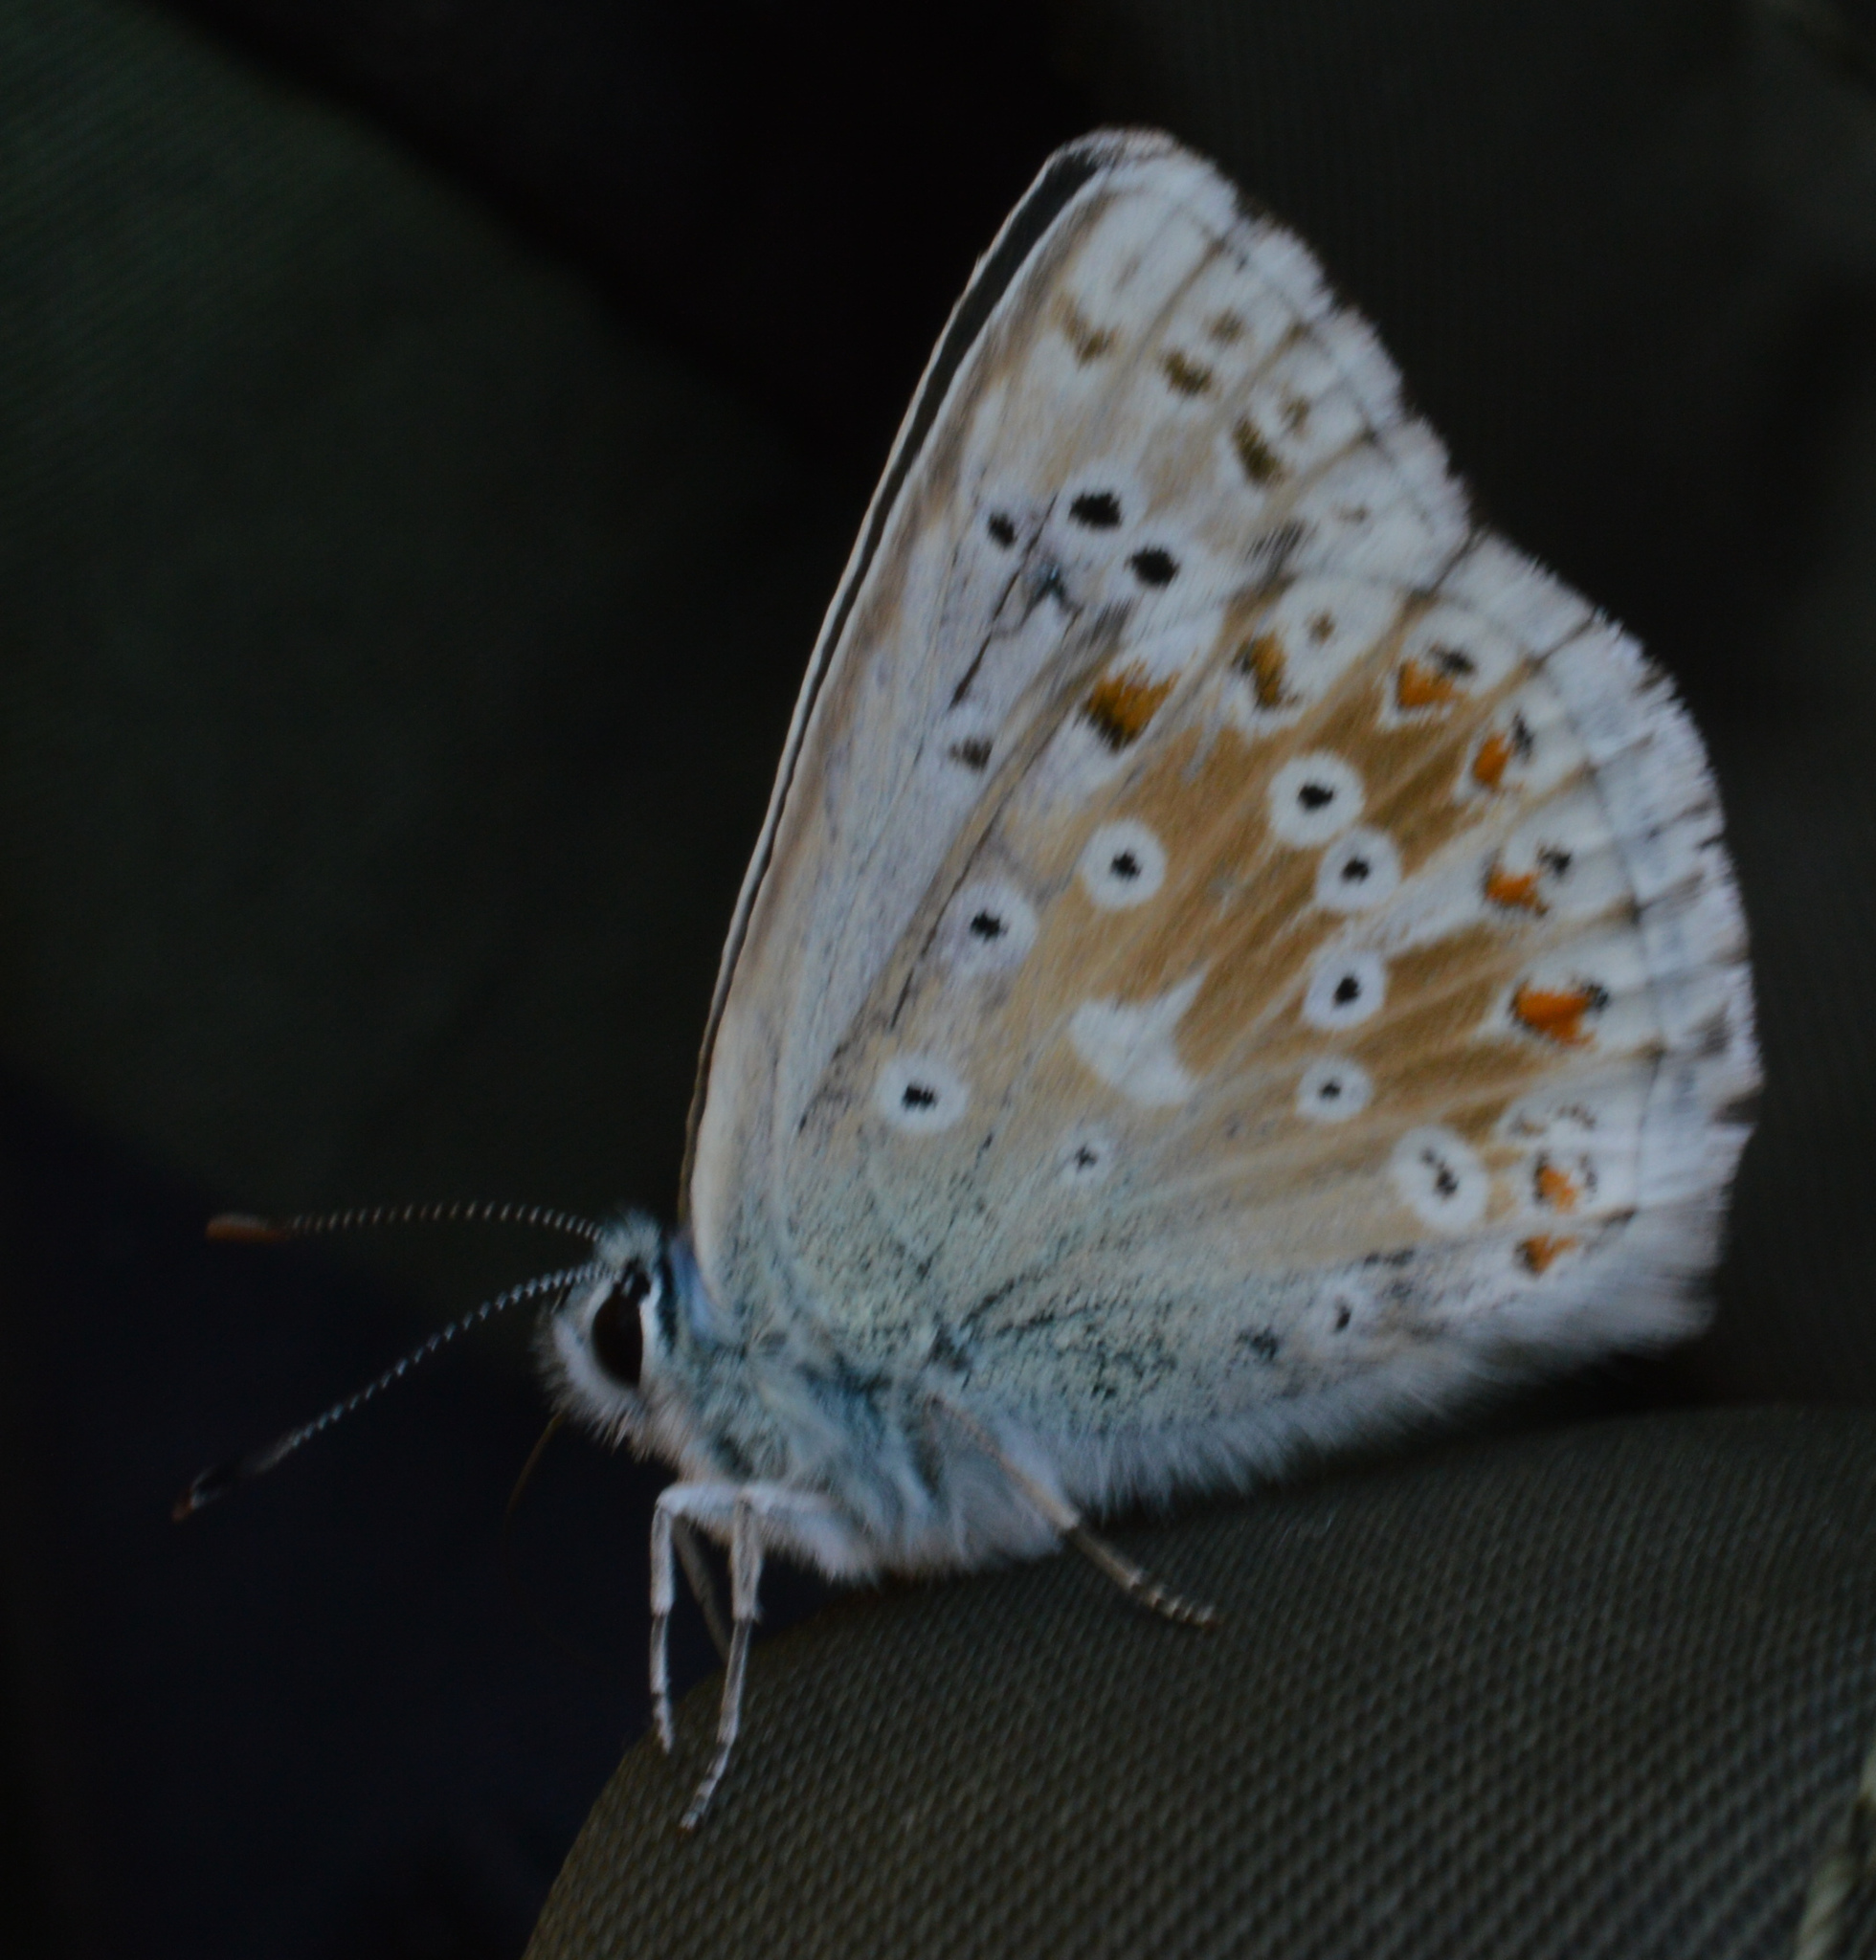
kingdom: Animalia
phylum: Arthropoda
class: Insecta
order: Lepidoptera
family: Lycaenidae
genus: Lysandra
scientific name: Lysandra coridon
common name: Chalkhill blue
